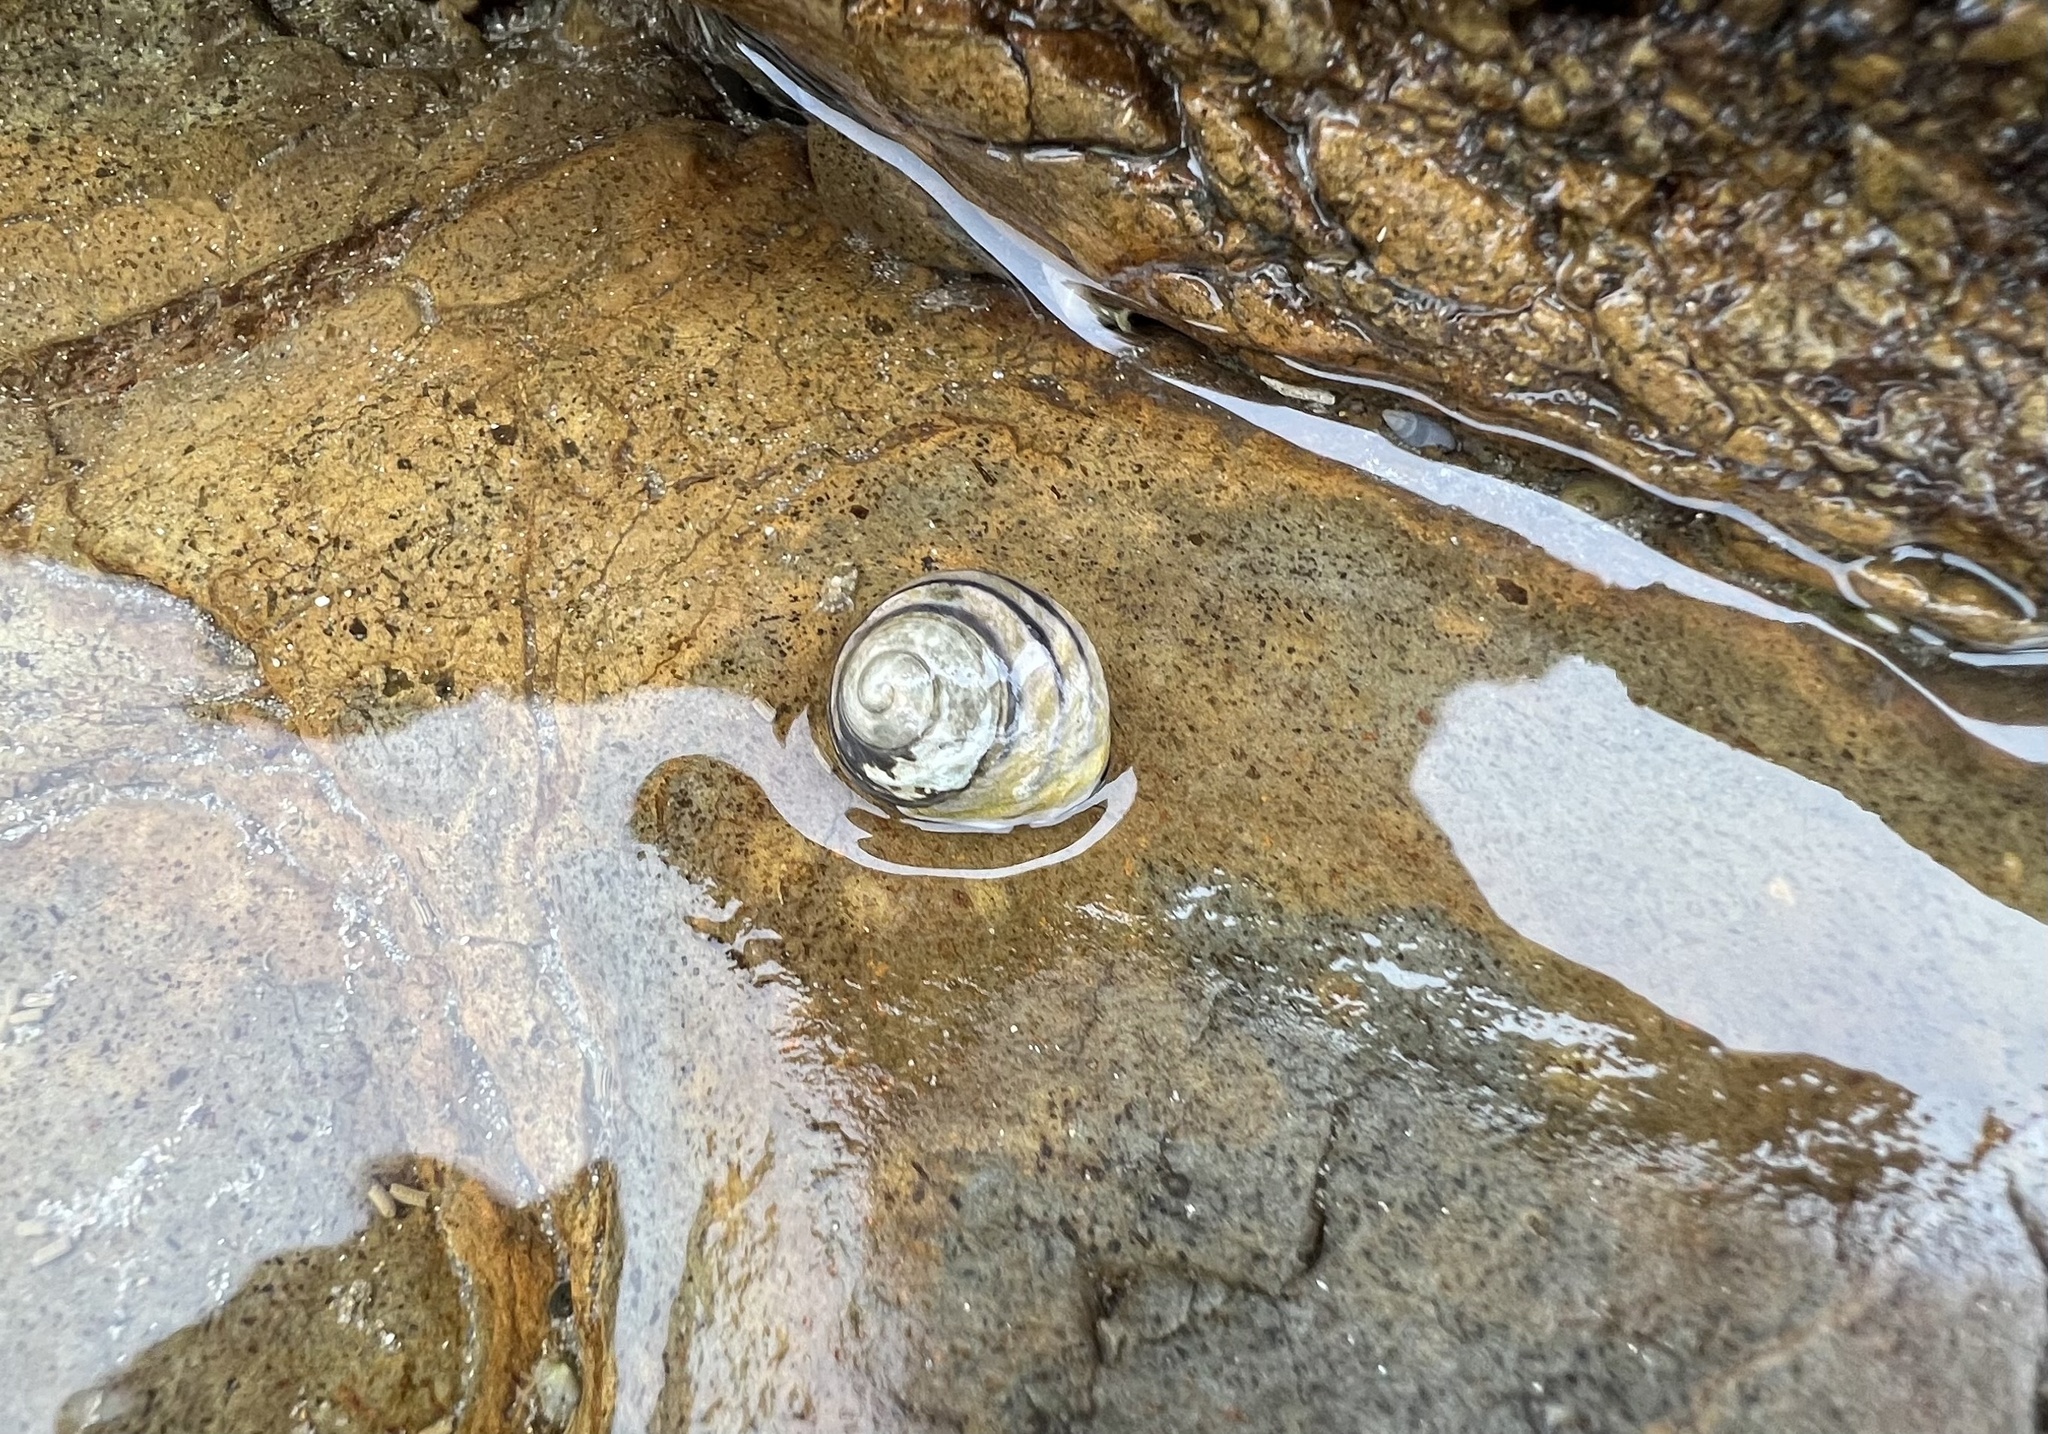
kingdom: Animalia
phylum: Mollusca
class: Gastropoda
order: Trochida
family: Trochidae
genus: Austrocochlea
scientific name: Austrocochlea constricta
